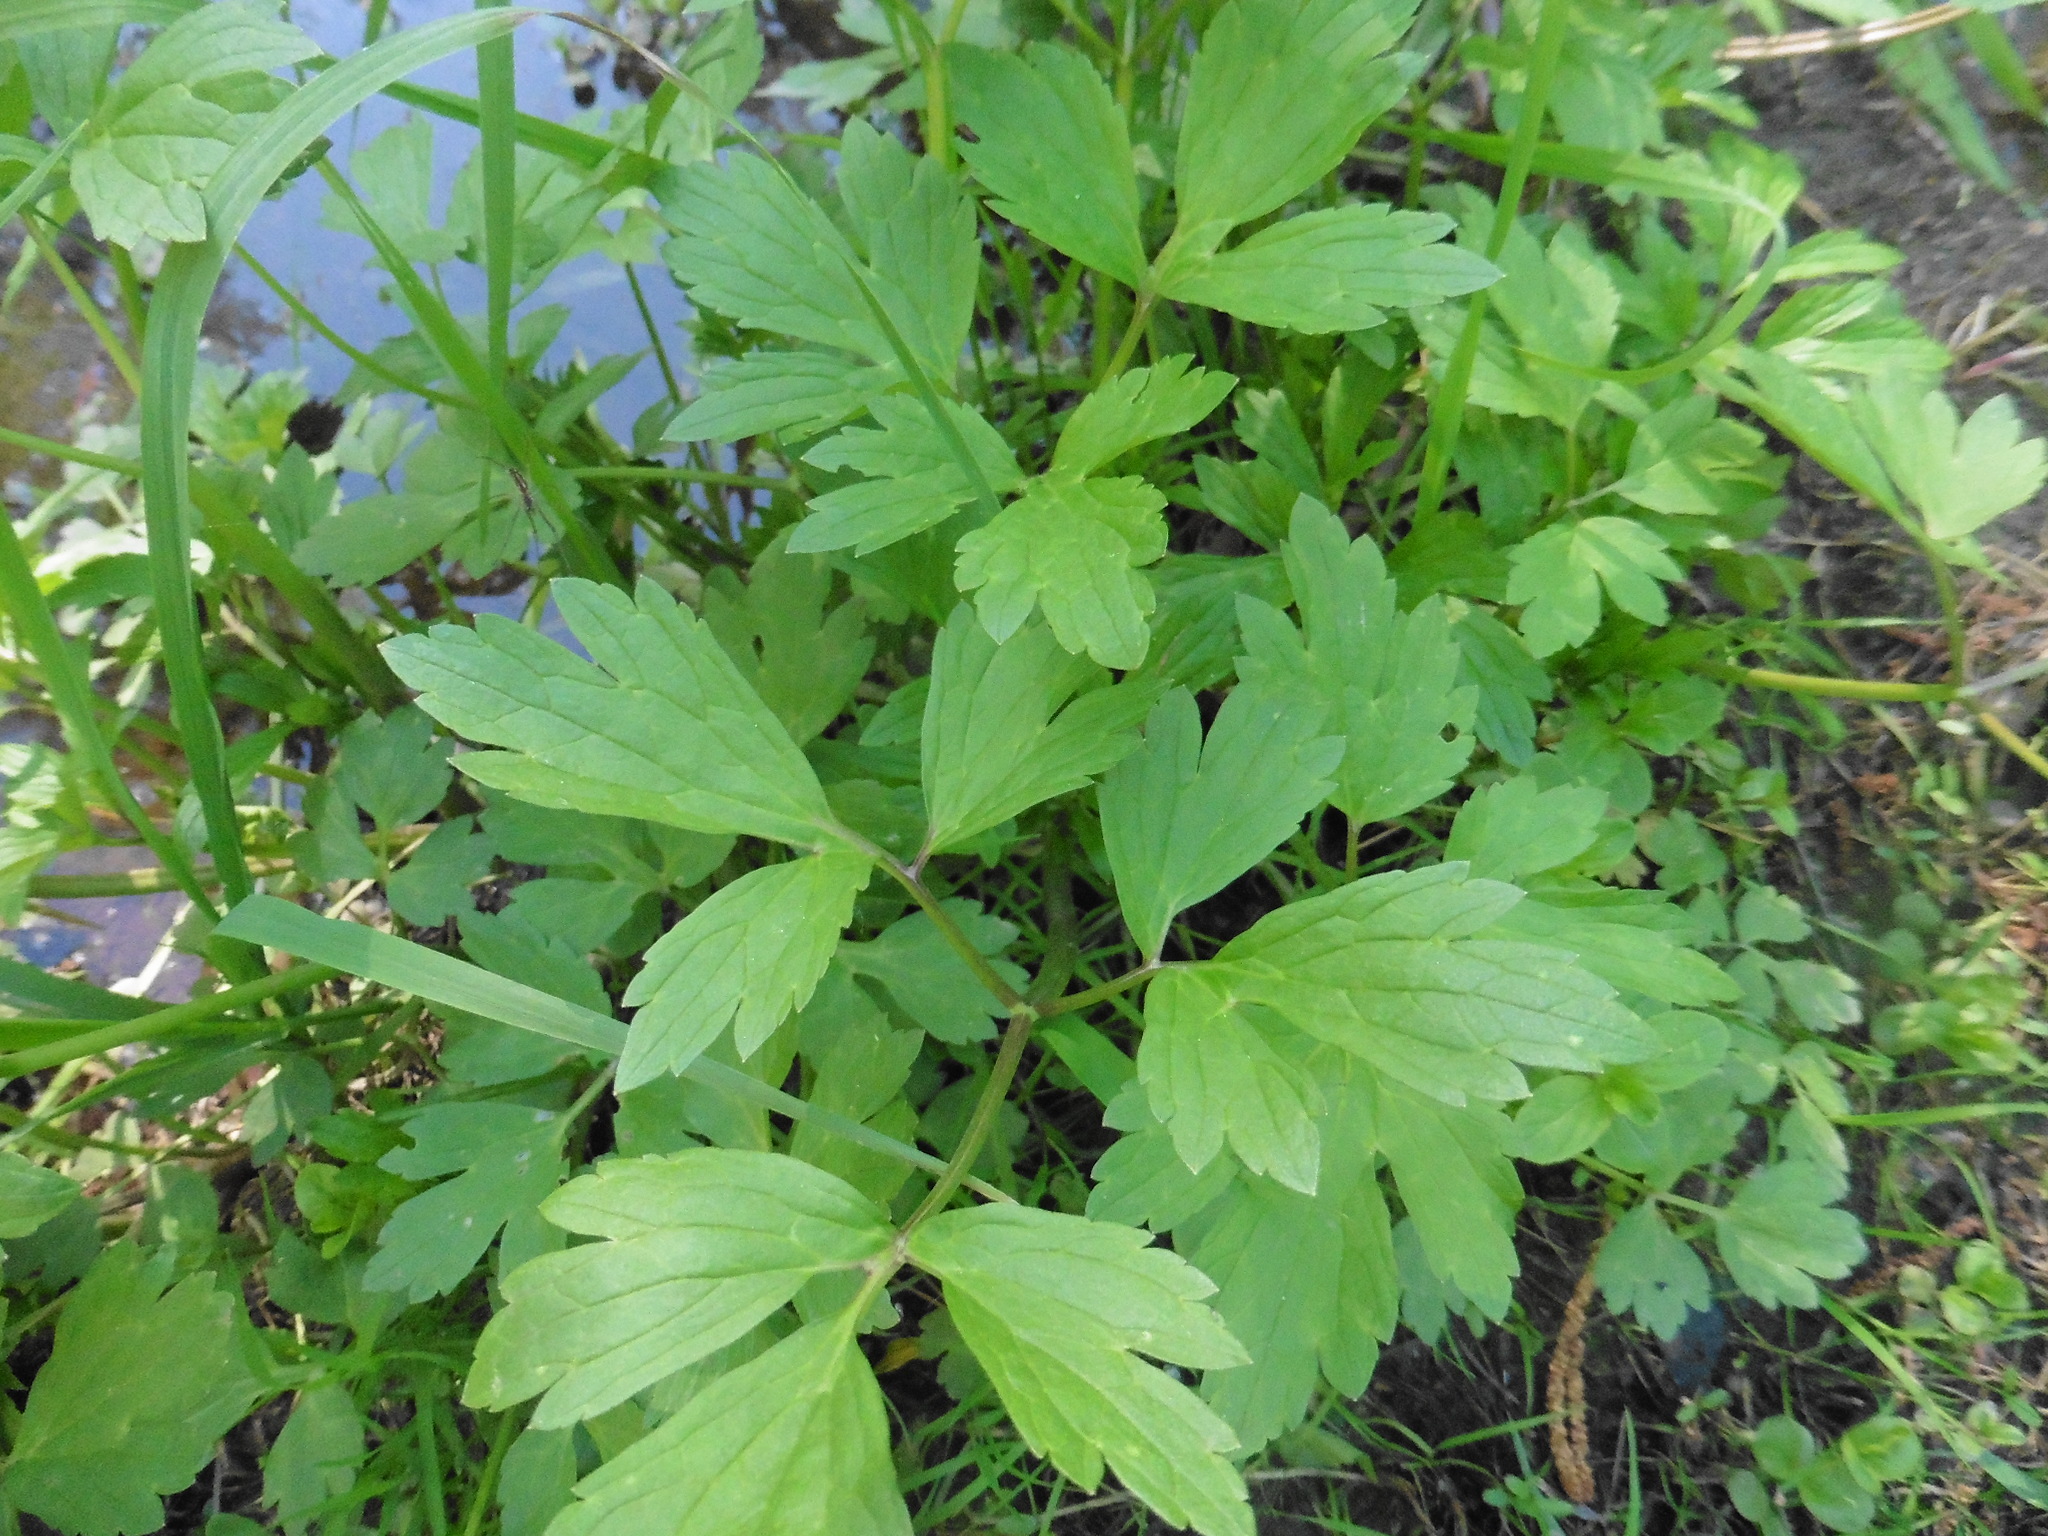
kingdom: Plantae
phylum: Tracheophyta
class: Magnoliopsida
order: Ranunculales
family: Ranunculaceae
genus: Ranunculus
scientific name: Ranunculus repens
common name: Creeping buttercup
